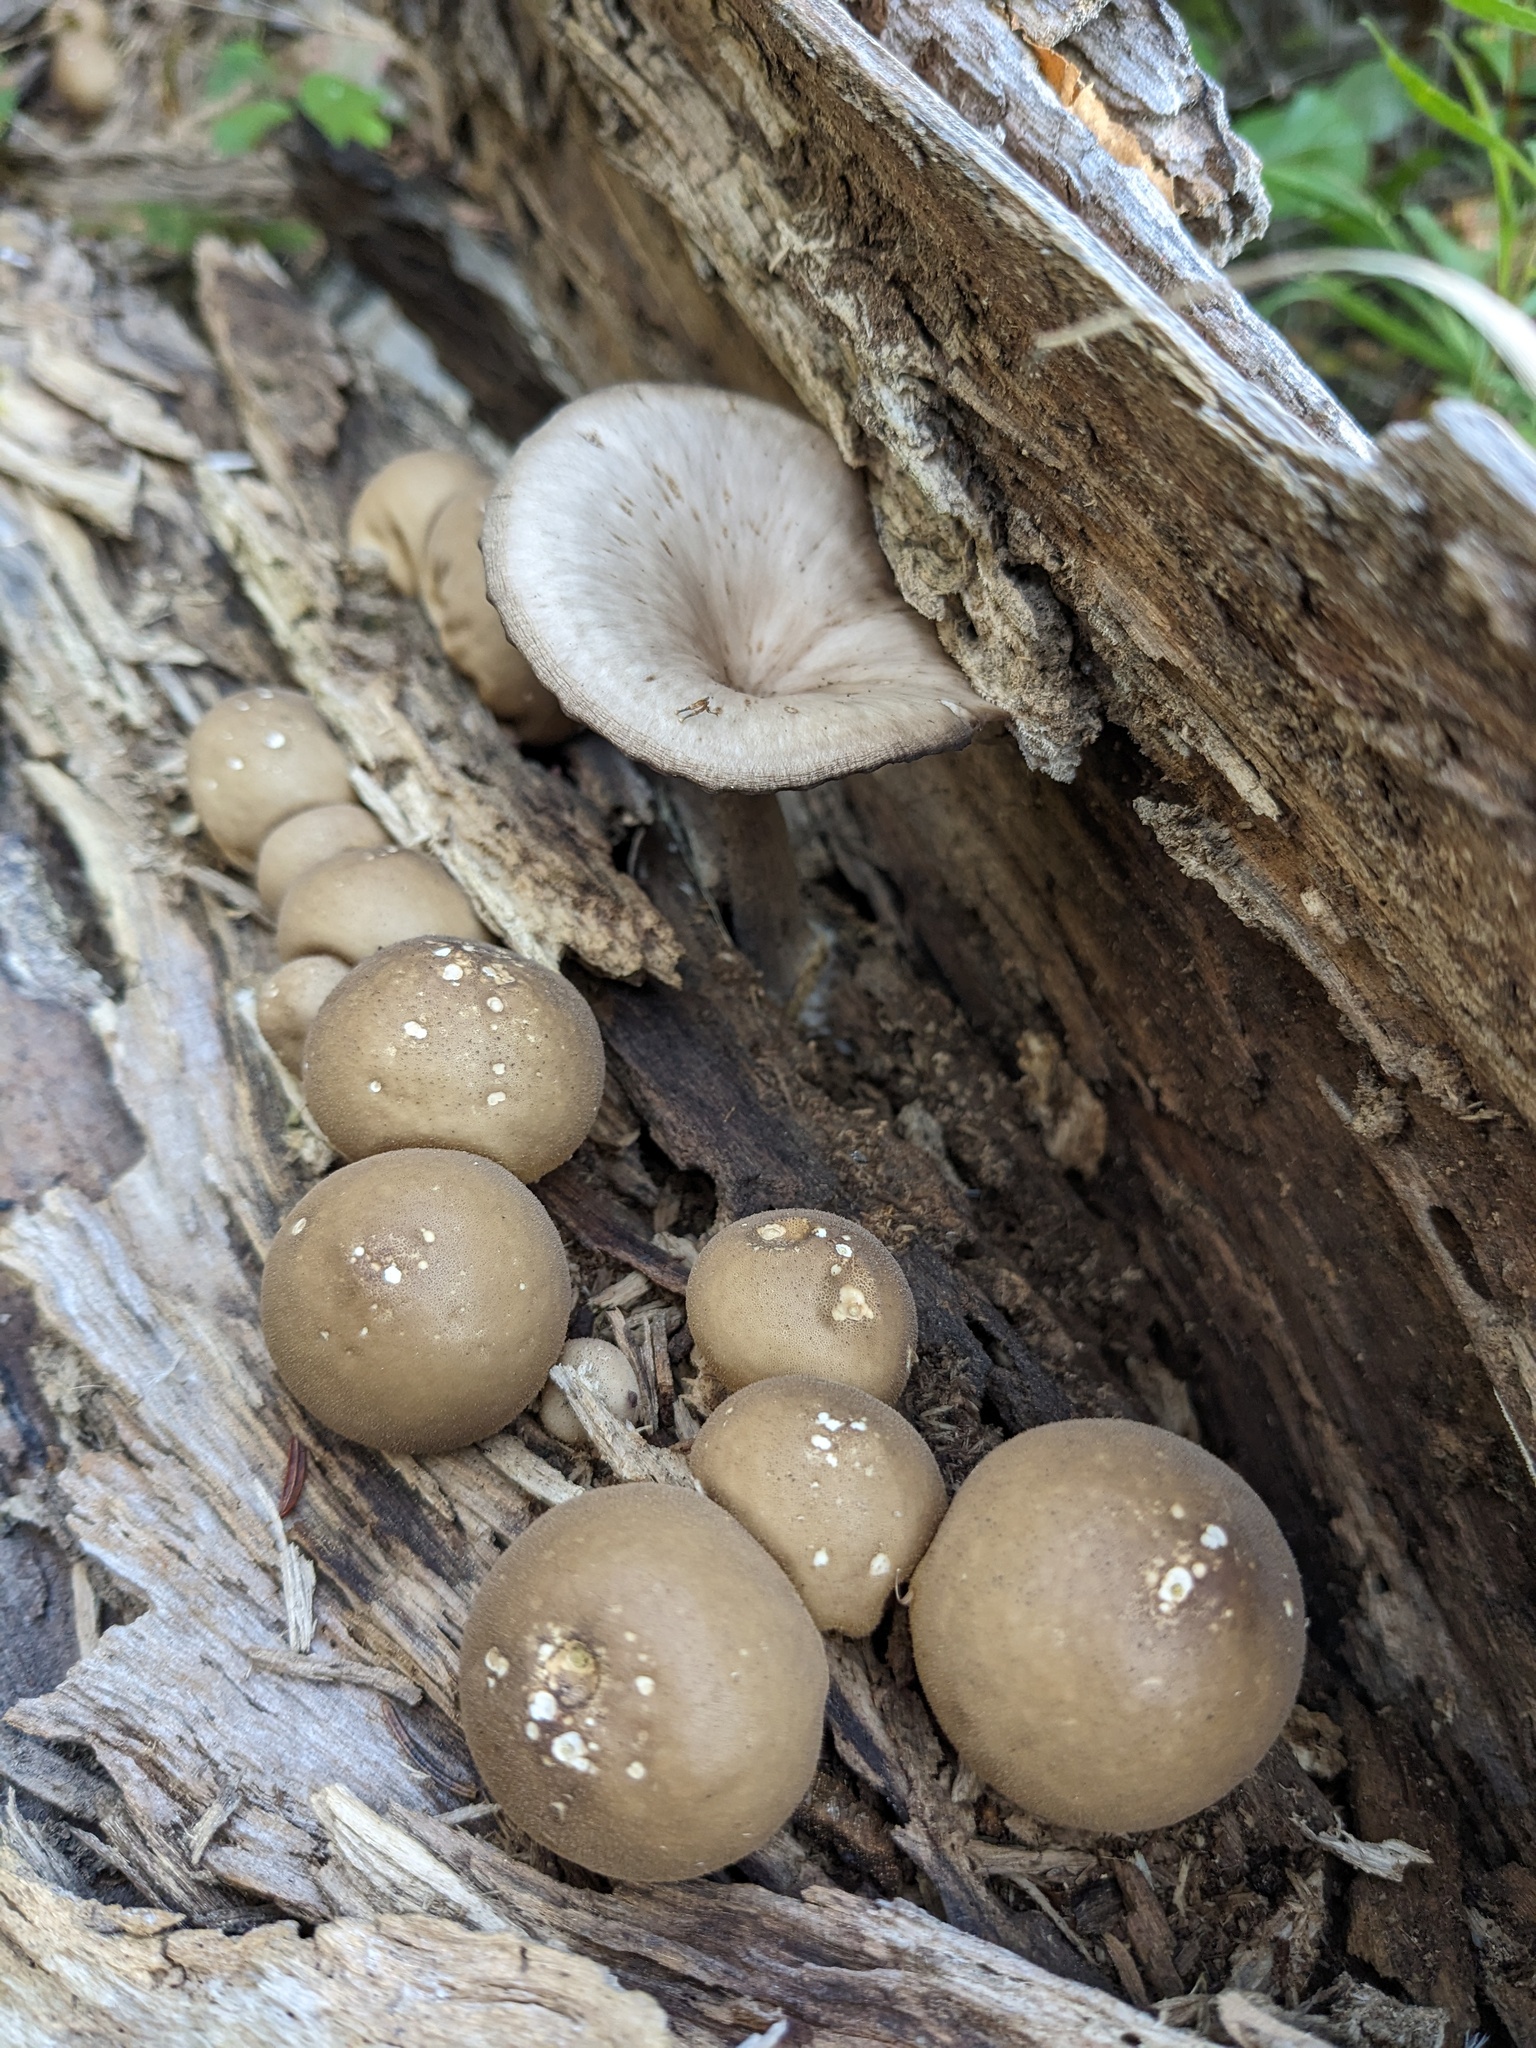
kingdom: Fungi
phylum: Basidiomycota
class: Agaricomycetes
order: Agaricales
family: Lycoperdaceae
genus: Apioperdon
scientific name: Apioperdon pyriforme
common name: Pear-shaped puffball
